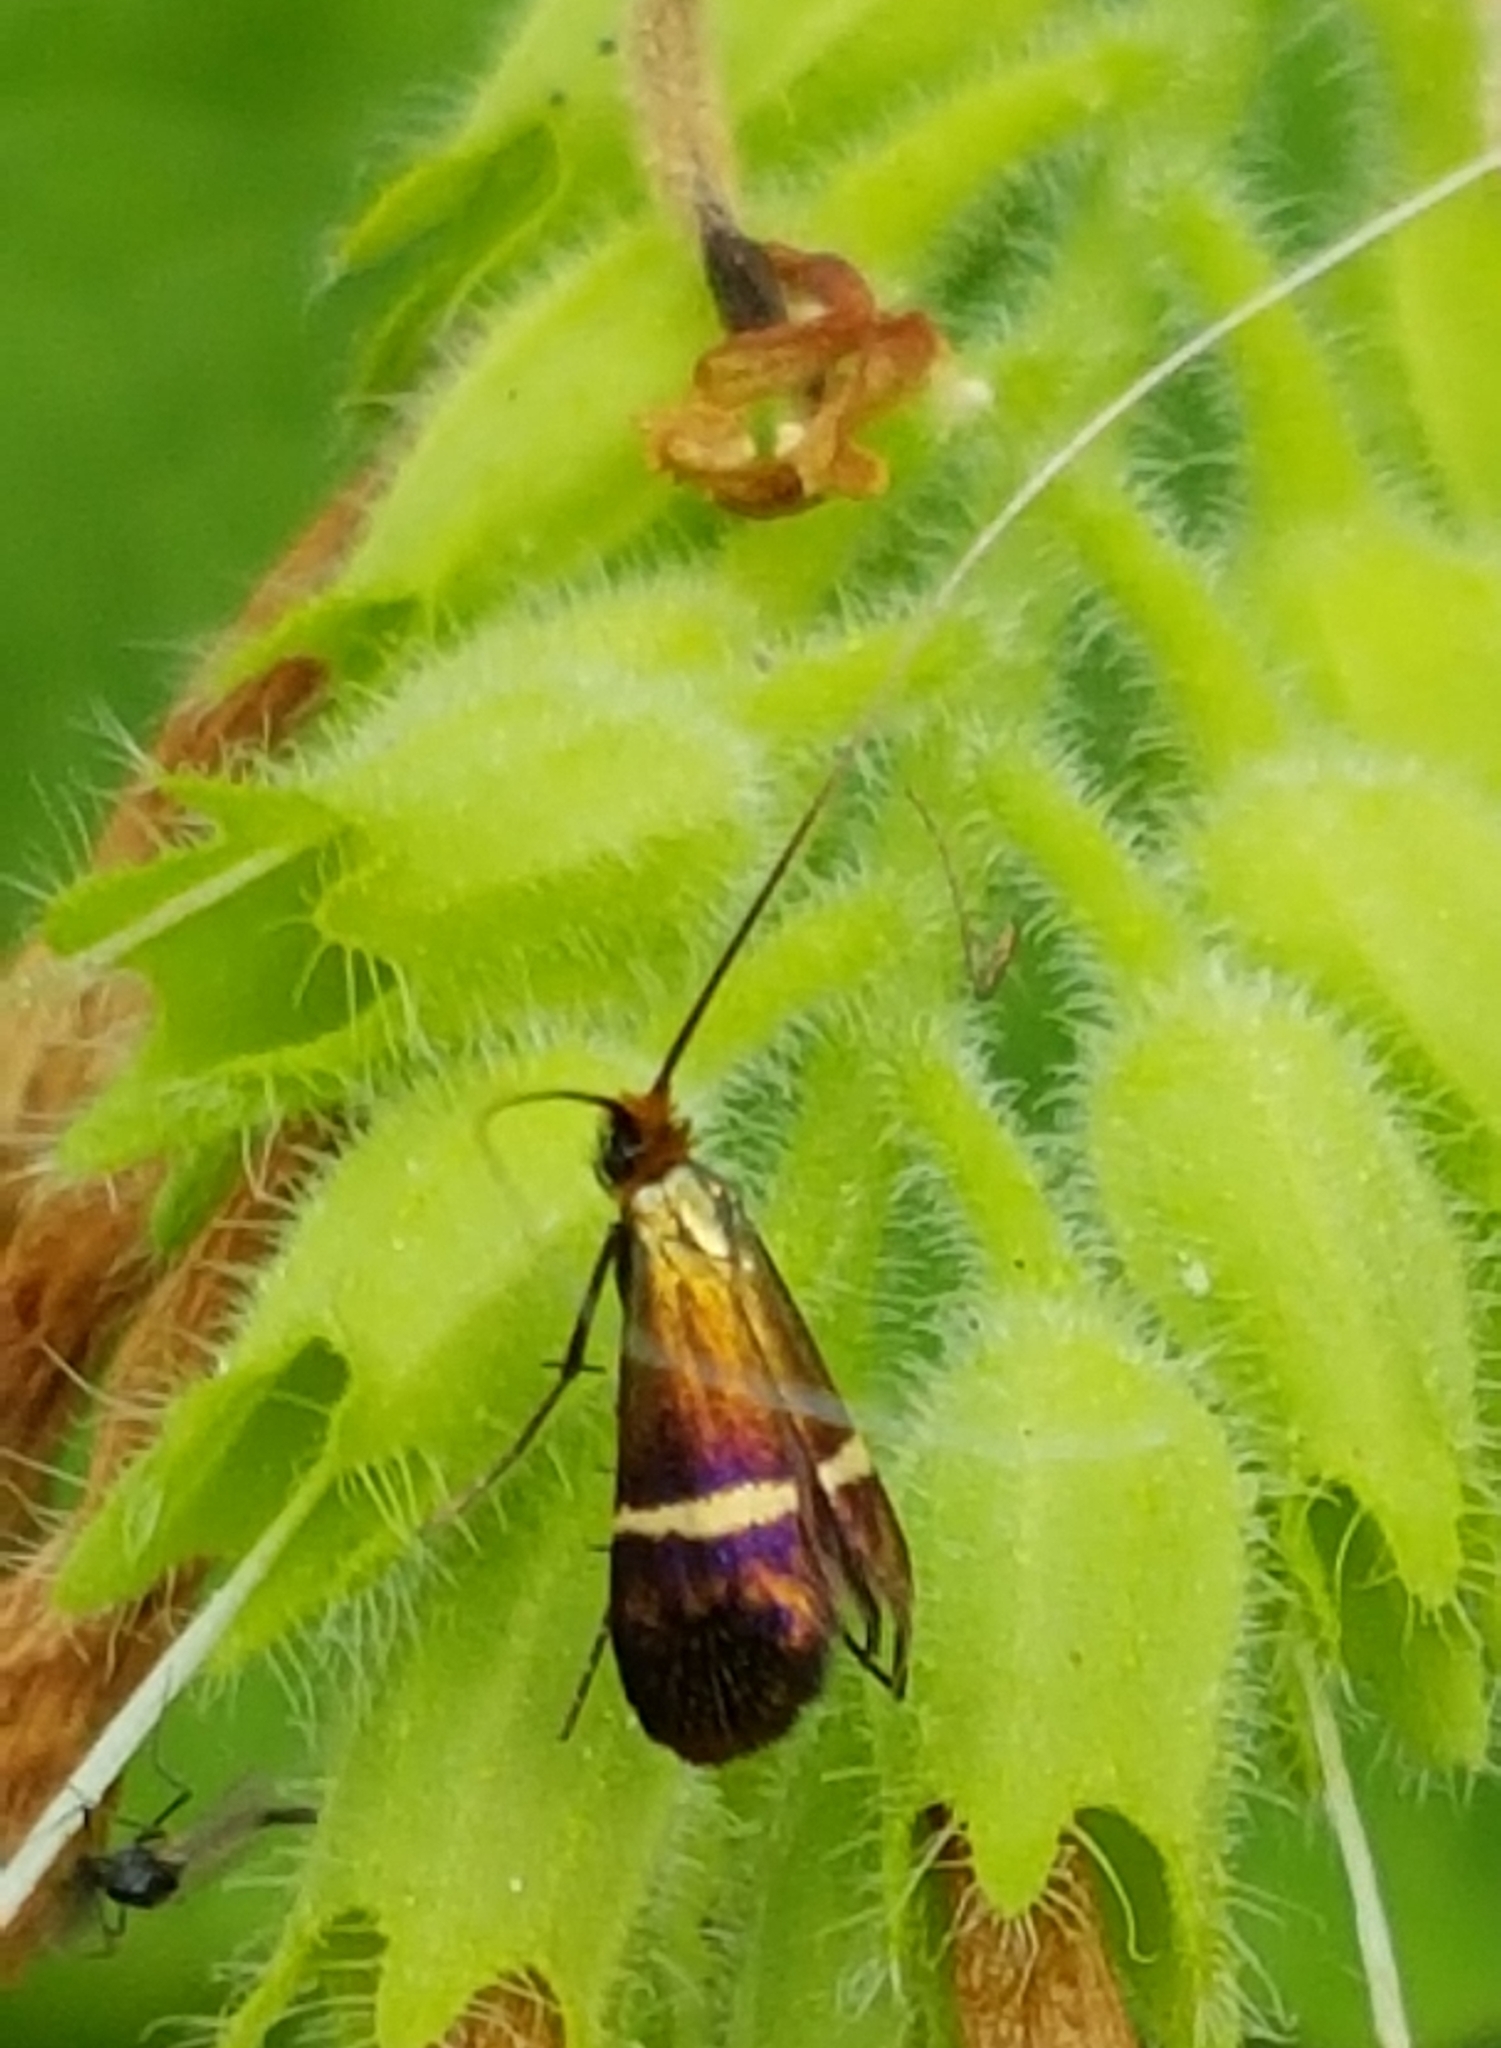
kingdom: Animalia
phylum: Arthropoda
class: Insecta
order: Lepidoptera
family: Adelidae
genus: Adela
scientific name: Adela australis
